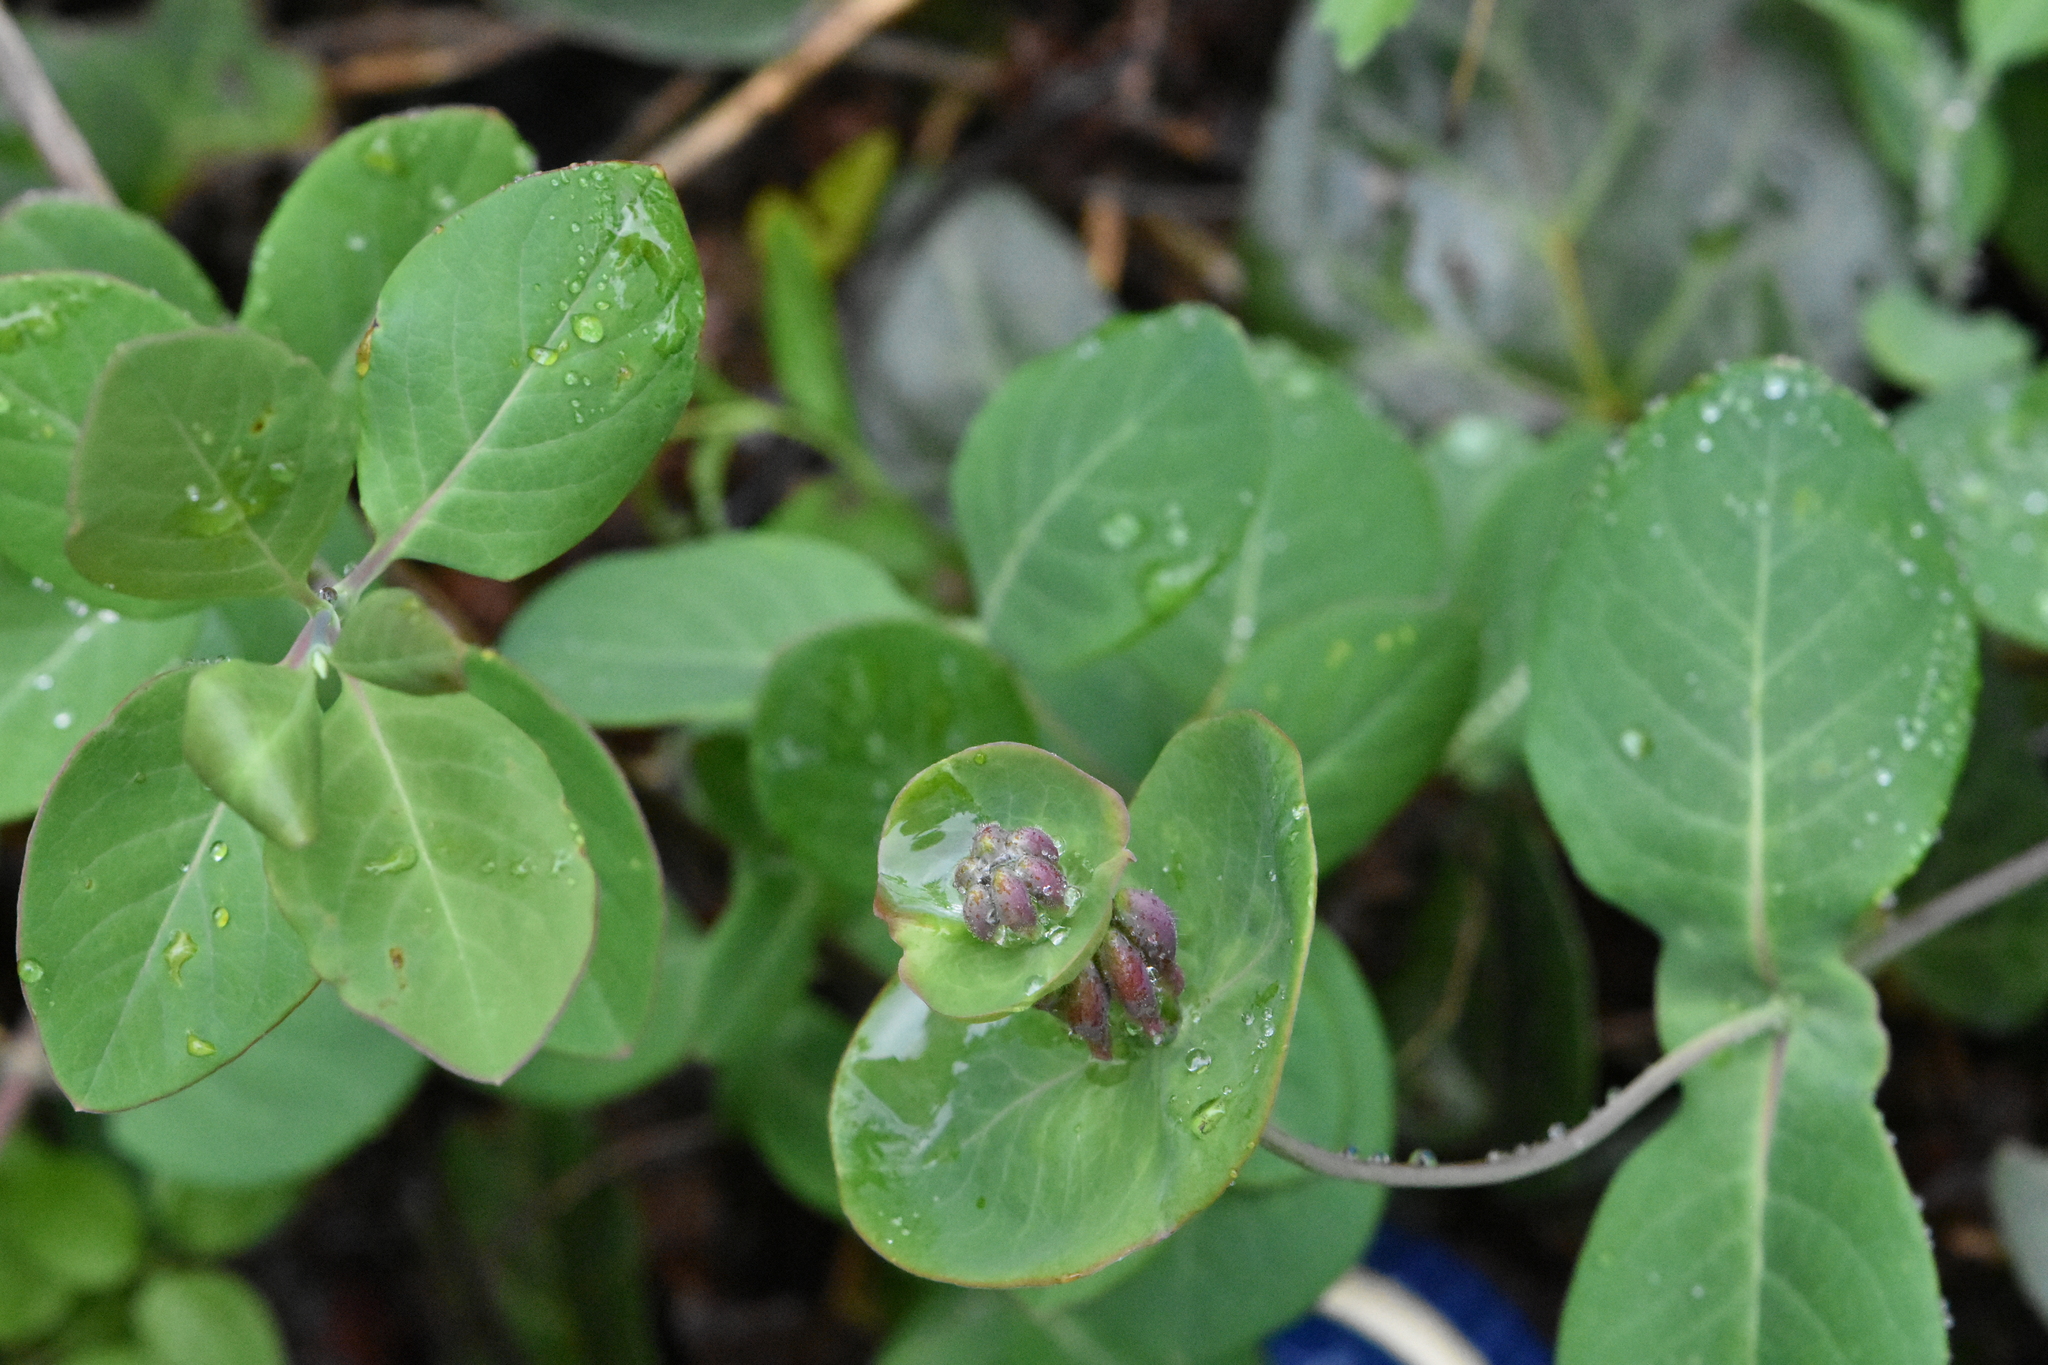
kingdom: Plantae
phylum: Tracheophyta
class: Magnoliopsida
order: Dipsacales
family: Caprifoliaceae
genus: Lonicera
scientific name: Lonicera caprifolium
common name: Perfoliate honeysuckle
